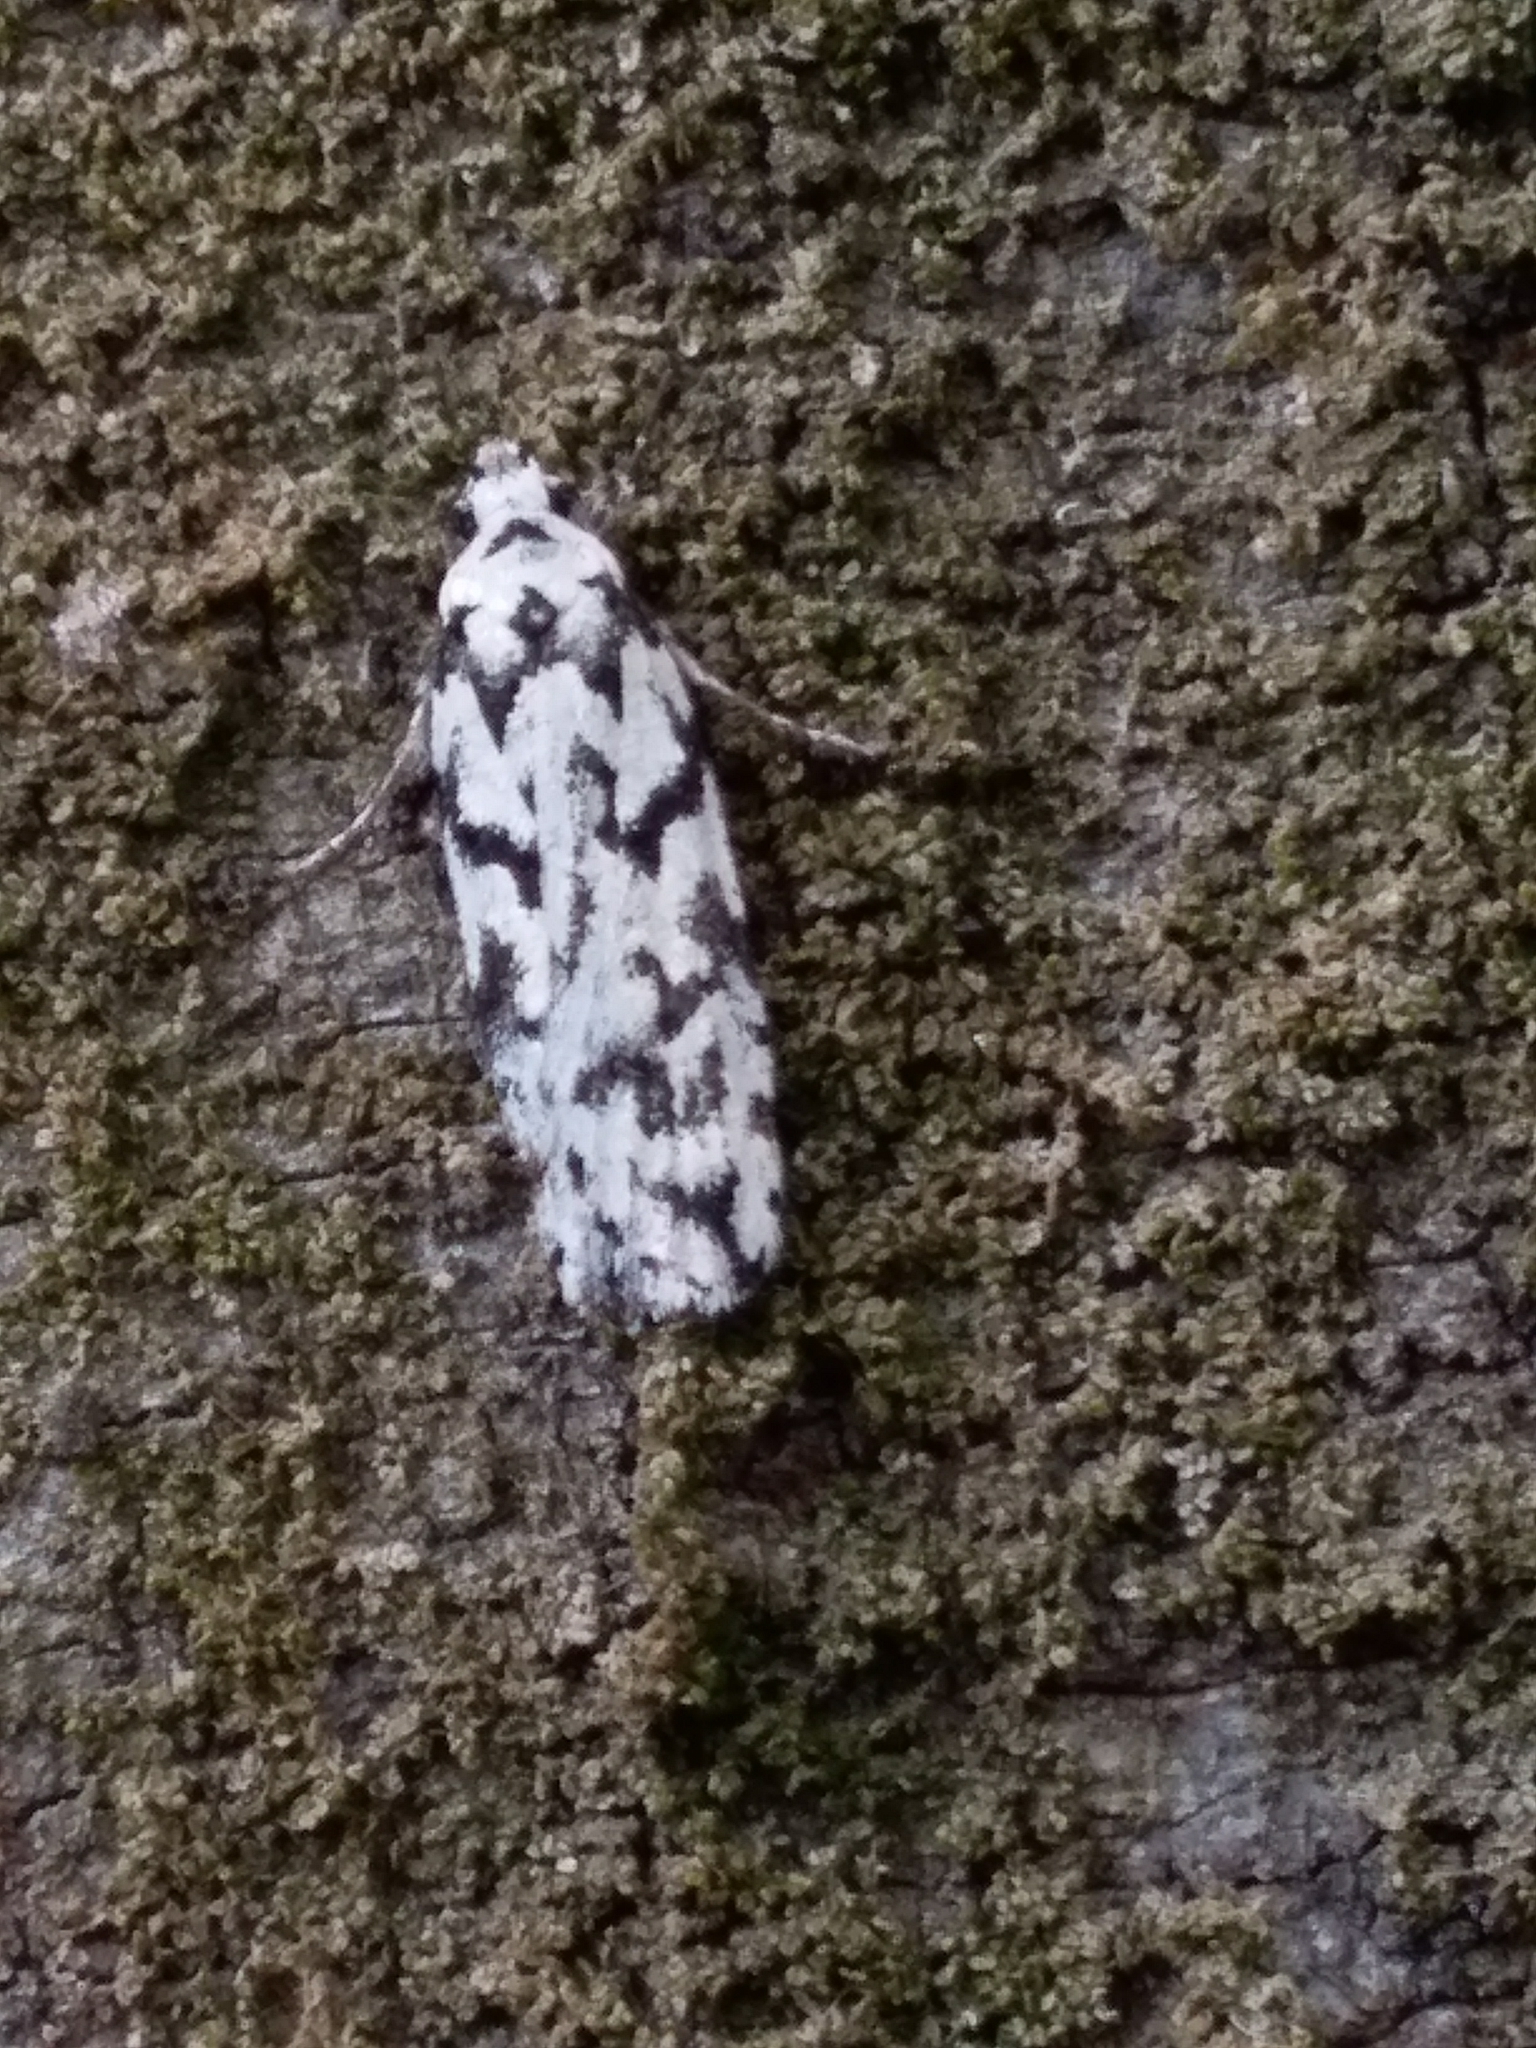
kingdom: Animalia
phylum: Arthropoda
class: Insecta
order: Lepidoptera
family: Oecophoridae
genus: Izatha
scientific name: Izatha katadiktya
